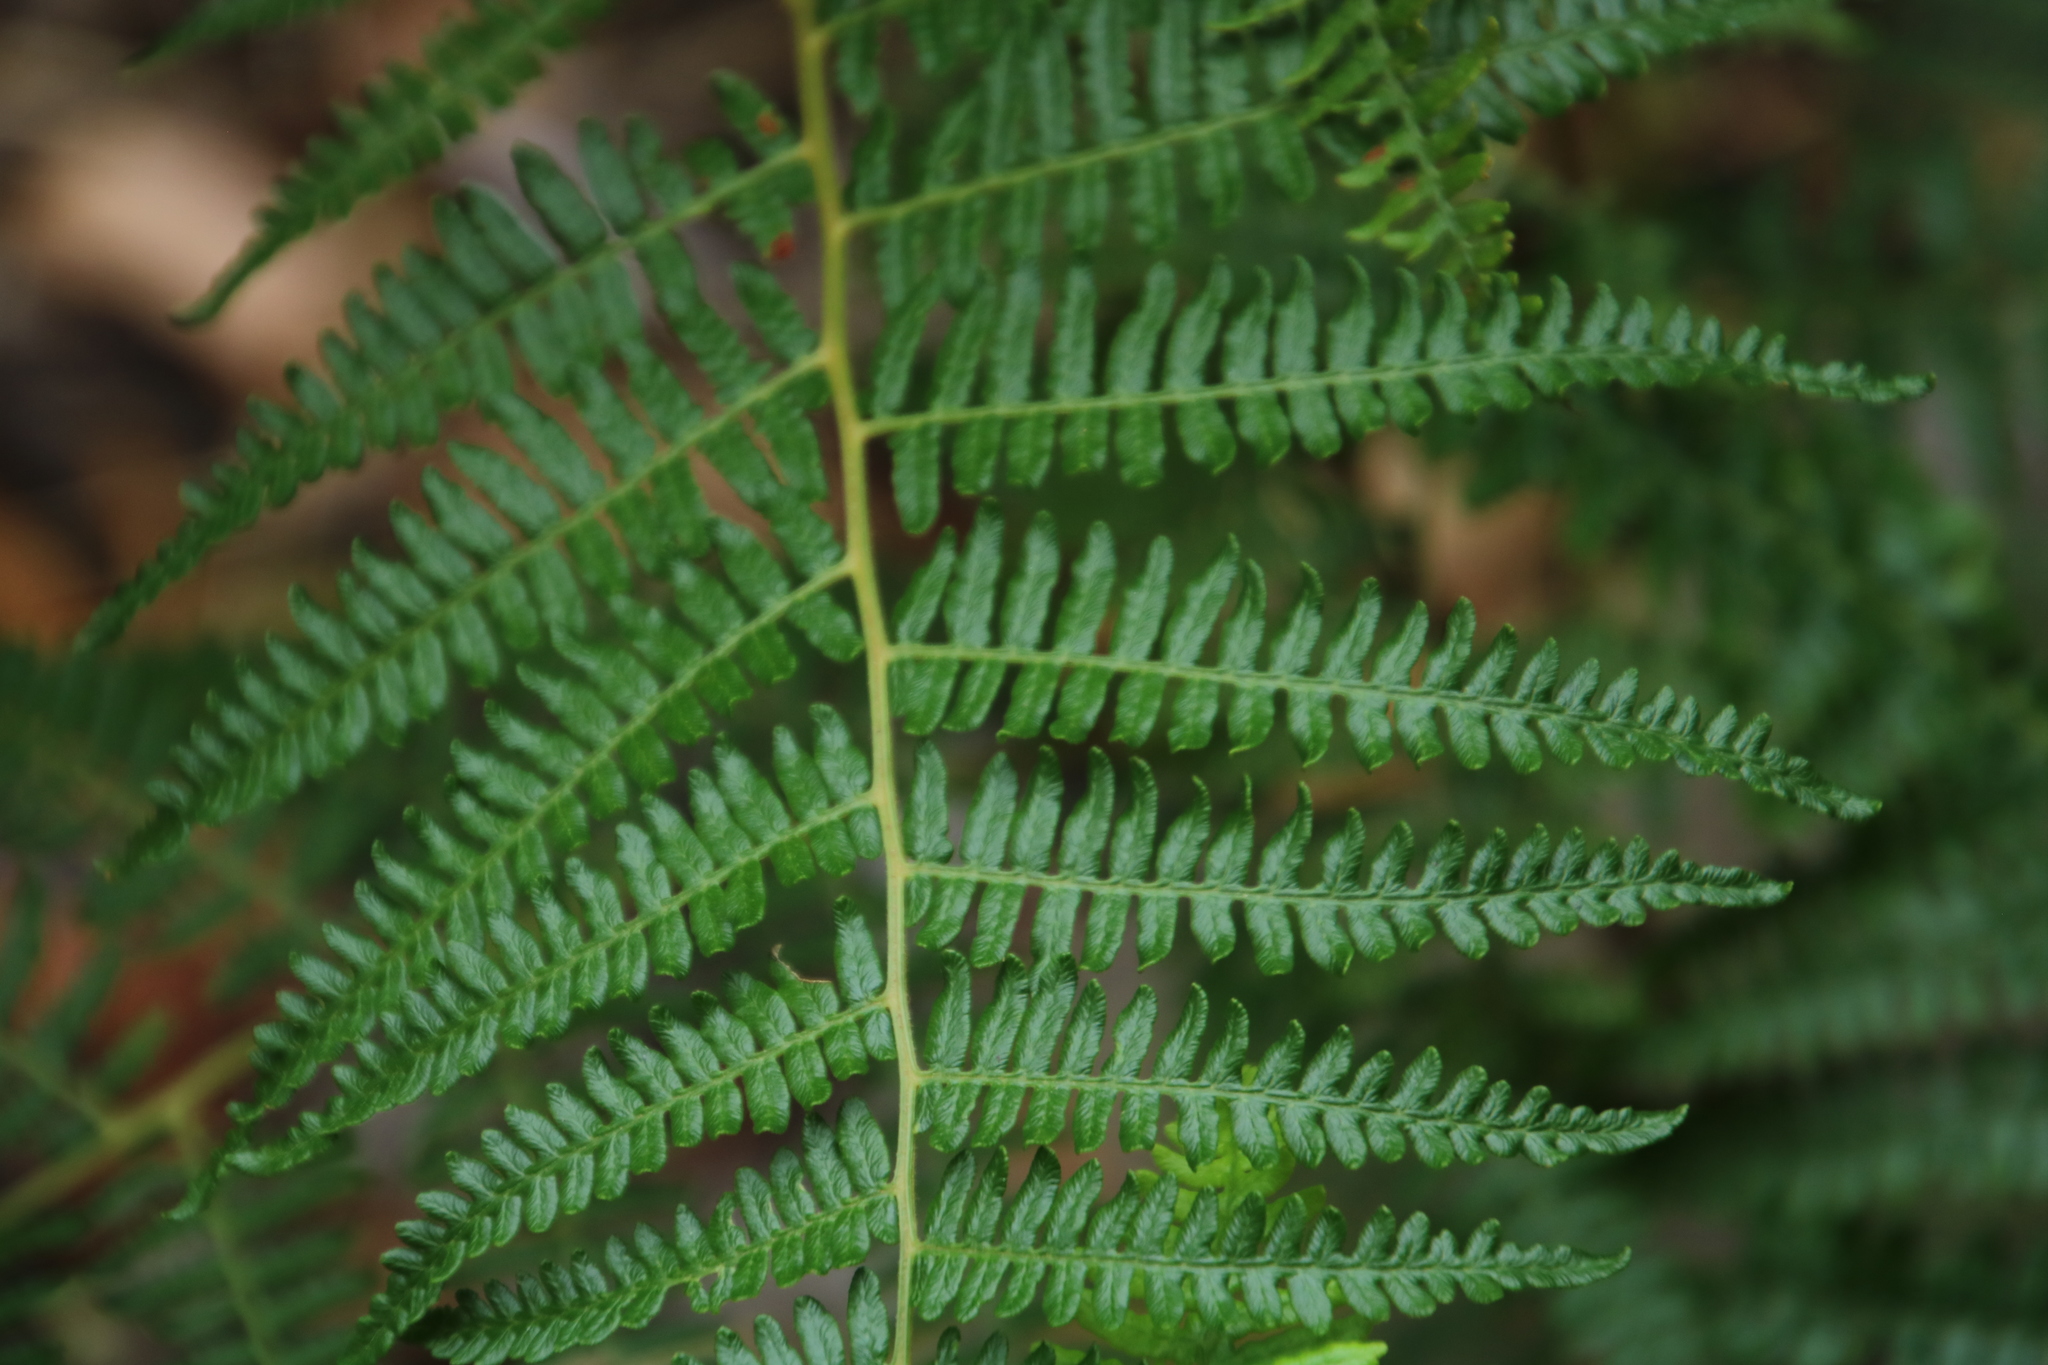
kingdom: Plantae
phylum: Tracheophyta
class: Polypodiopsida
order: Polypodiales
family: Dennstaedtiaceae
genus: Pteridium
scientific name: Pteridium aquilinum
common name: Bracken
